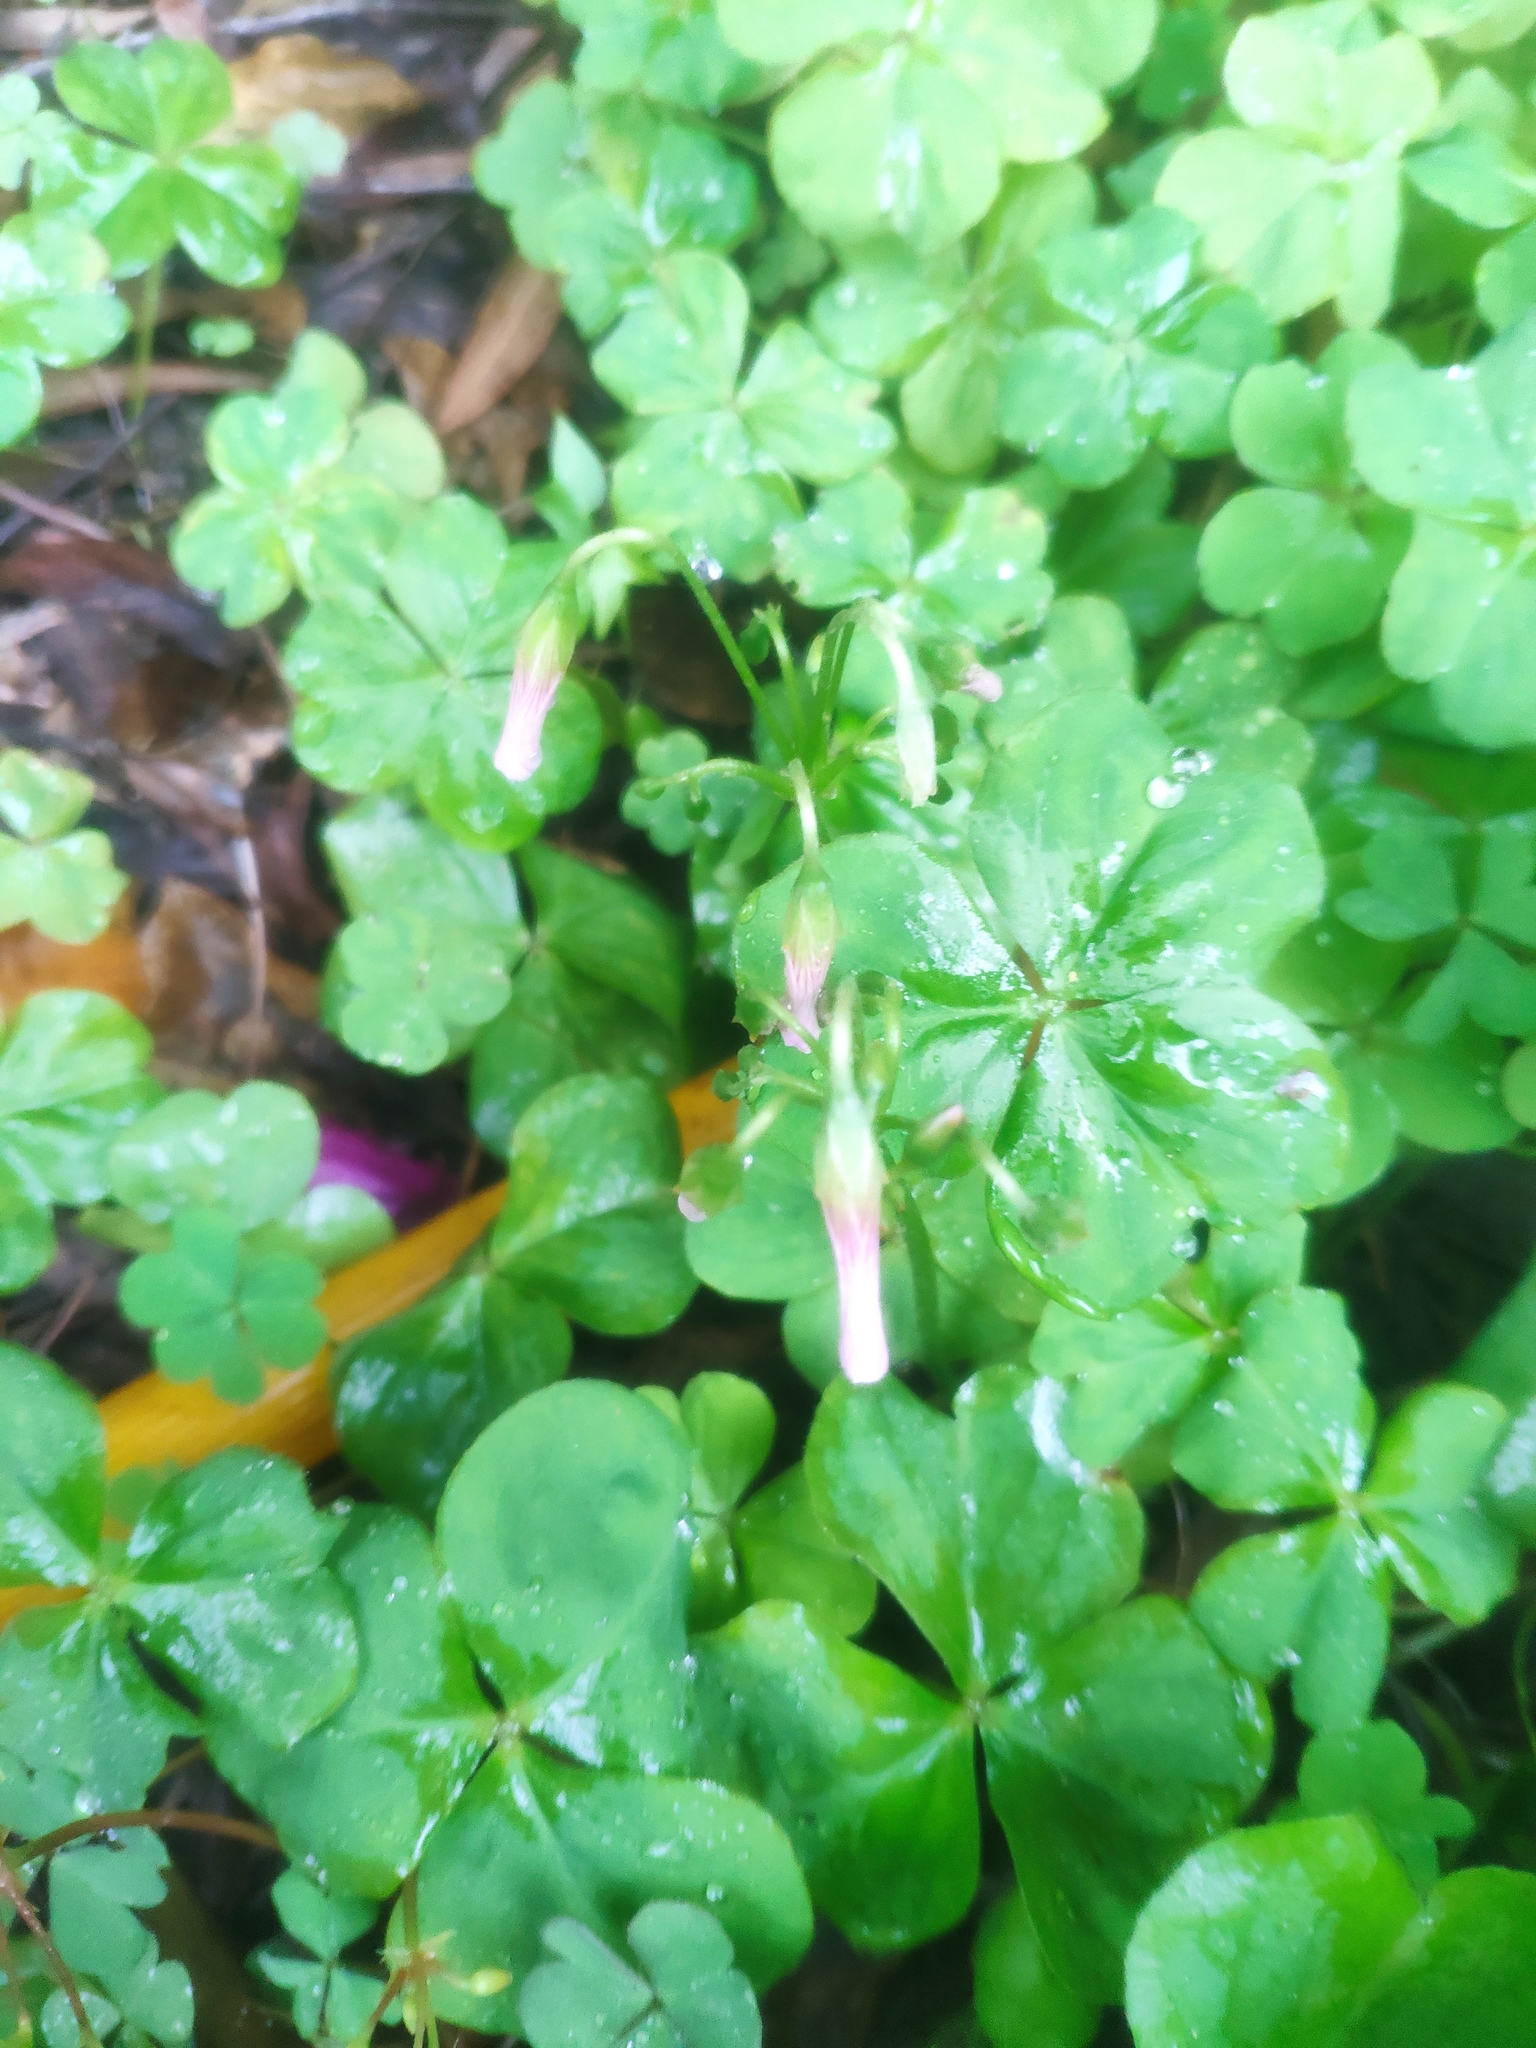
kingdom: Plantae
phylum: Tracheophyta
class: Magnoliopsida
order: Oxalidales
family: Oxalidaceae
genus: Oxalis
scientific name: Oxalis debilis
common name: Large-flowered pink-sorrel
